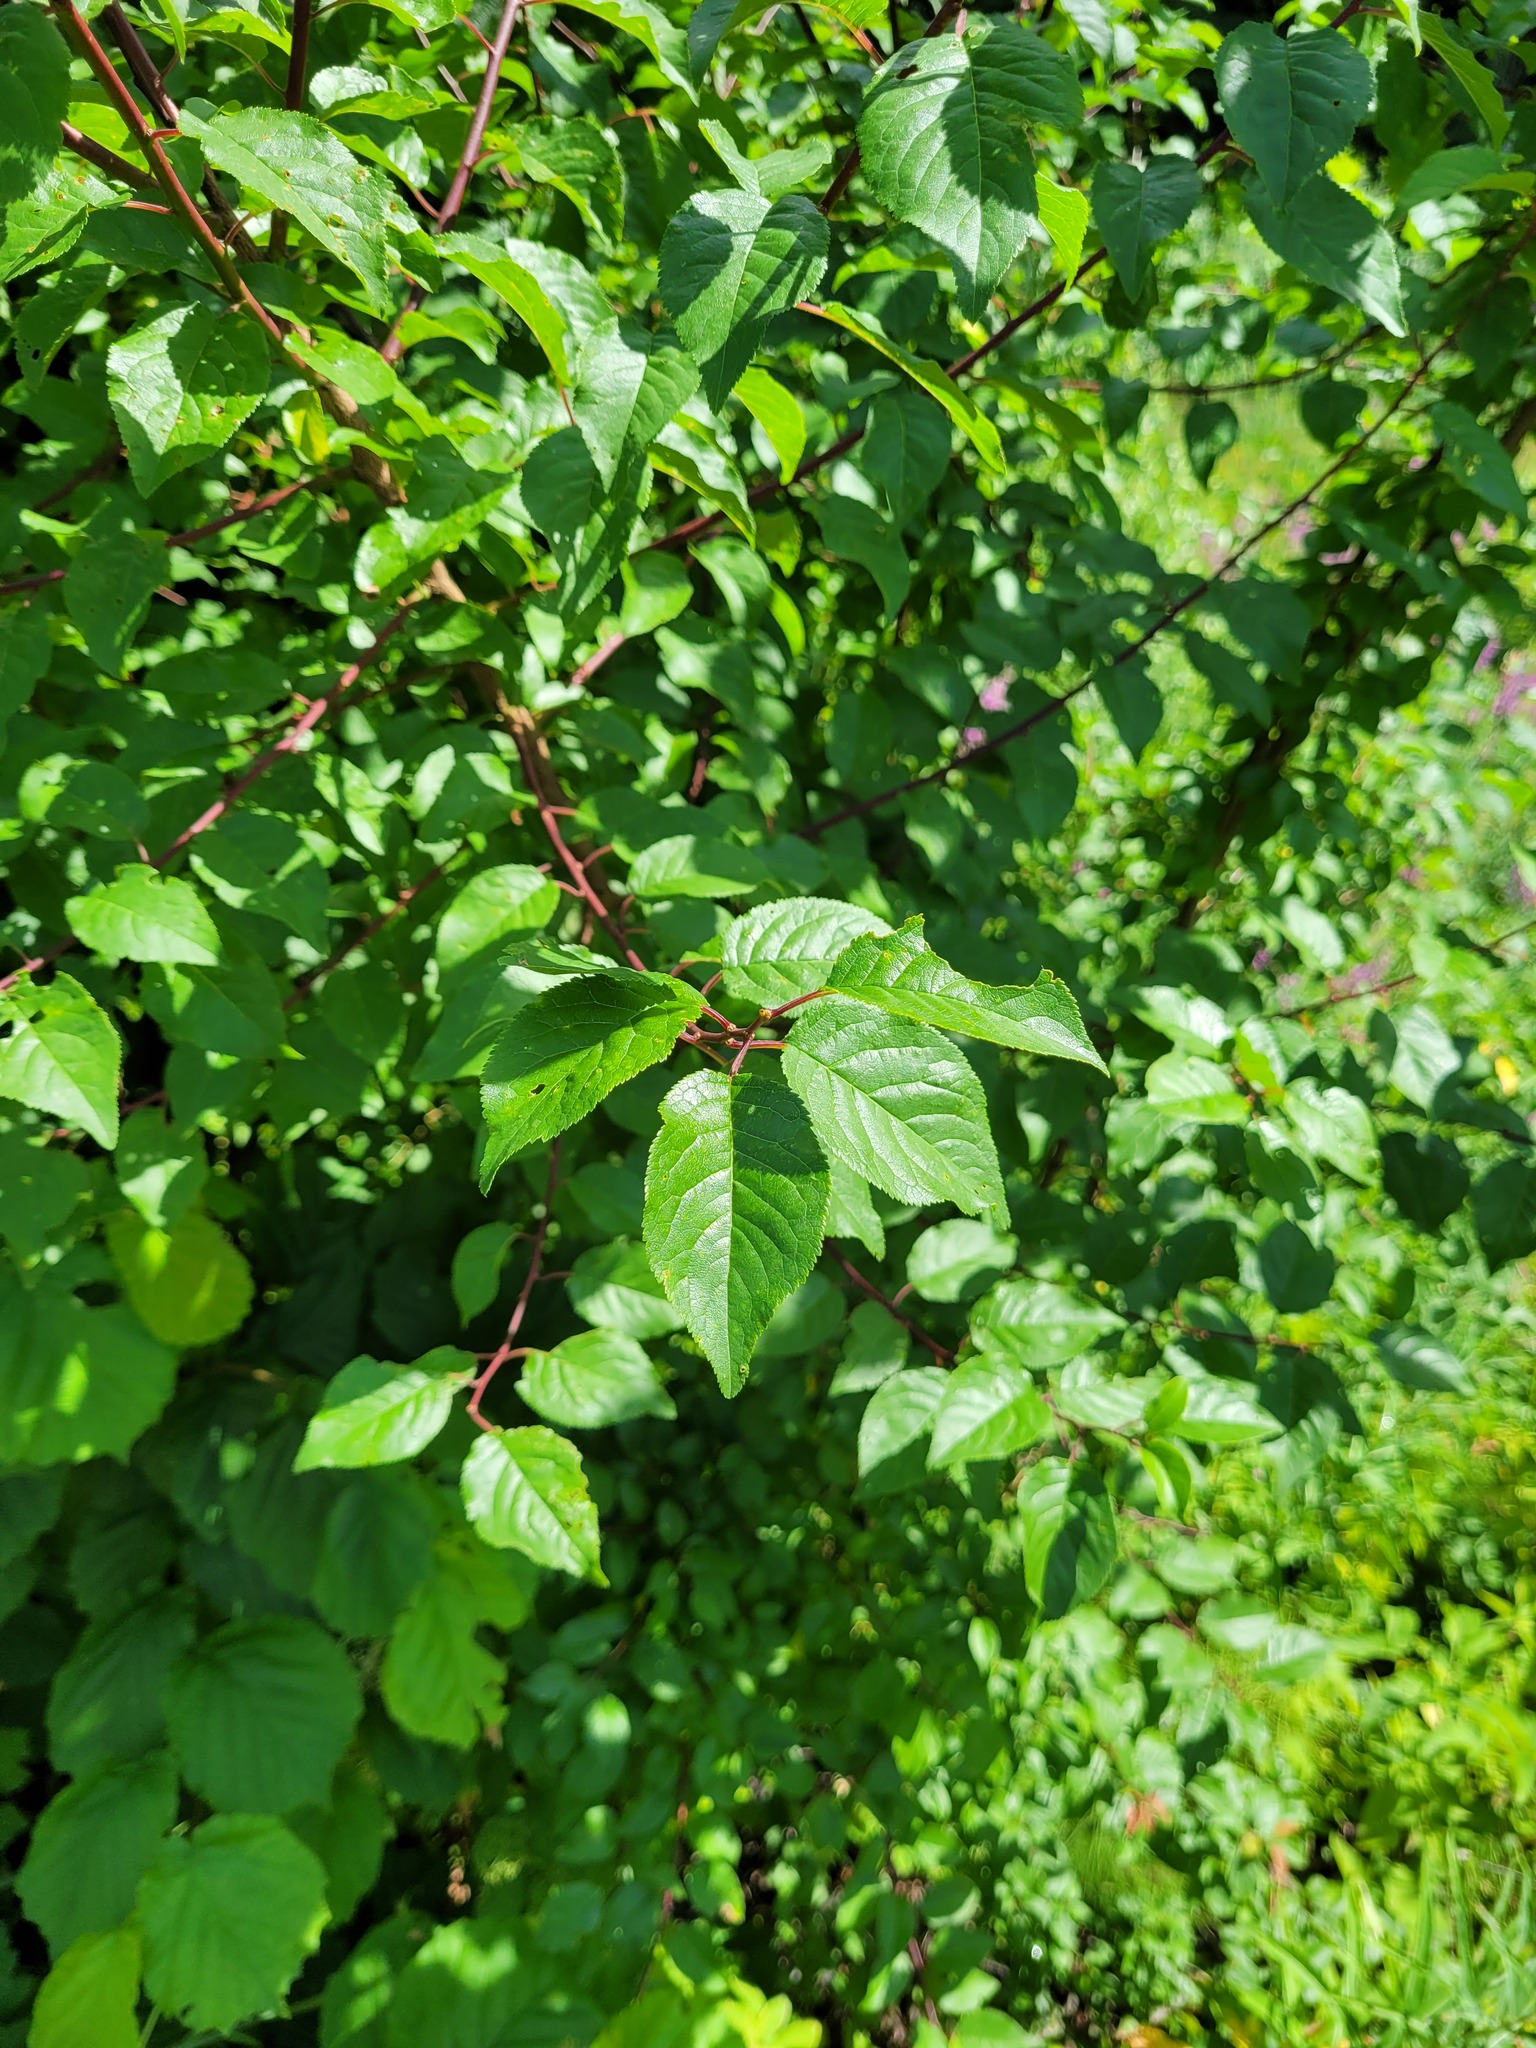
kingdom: Plantae
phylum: Tracheophyta
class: Magnoliopsida
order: Rosales
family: Rosaceae
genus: Prunus
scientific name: Prunus cerasifera
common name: Cherry plum
